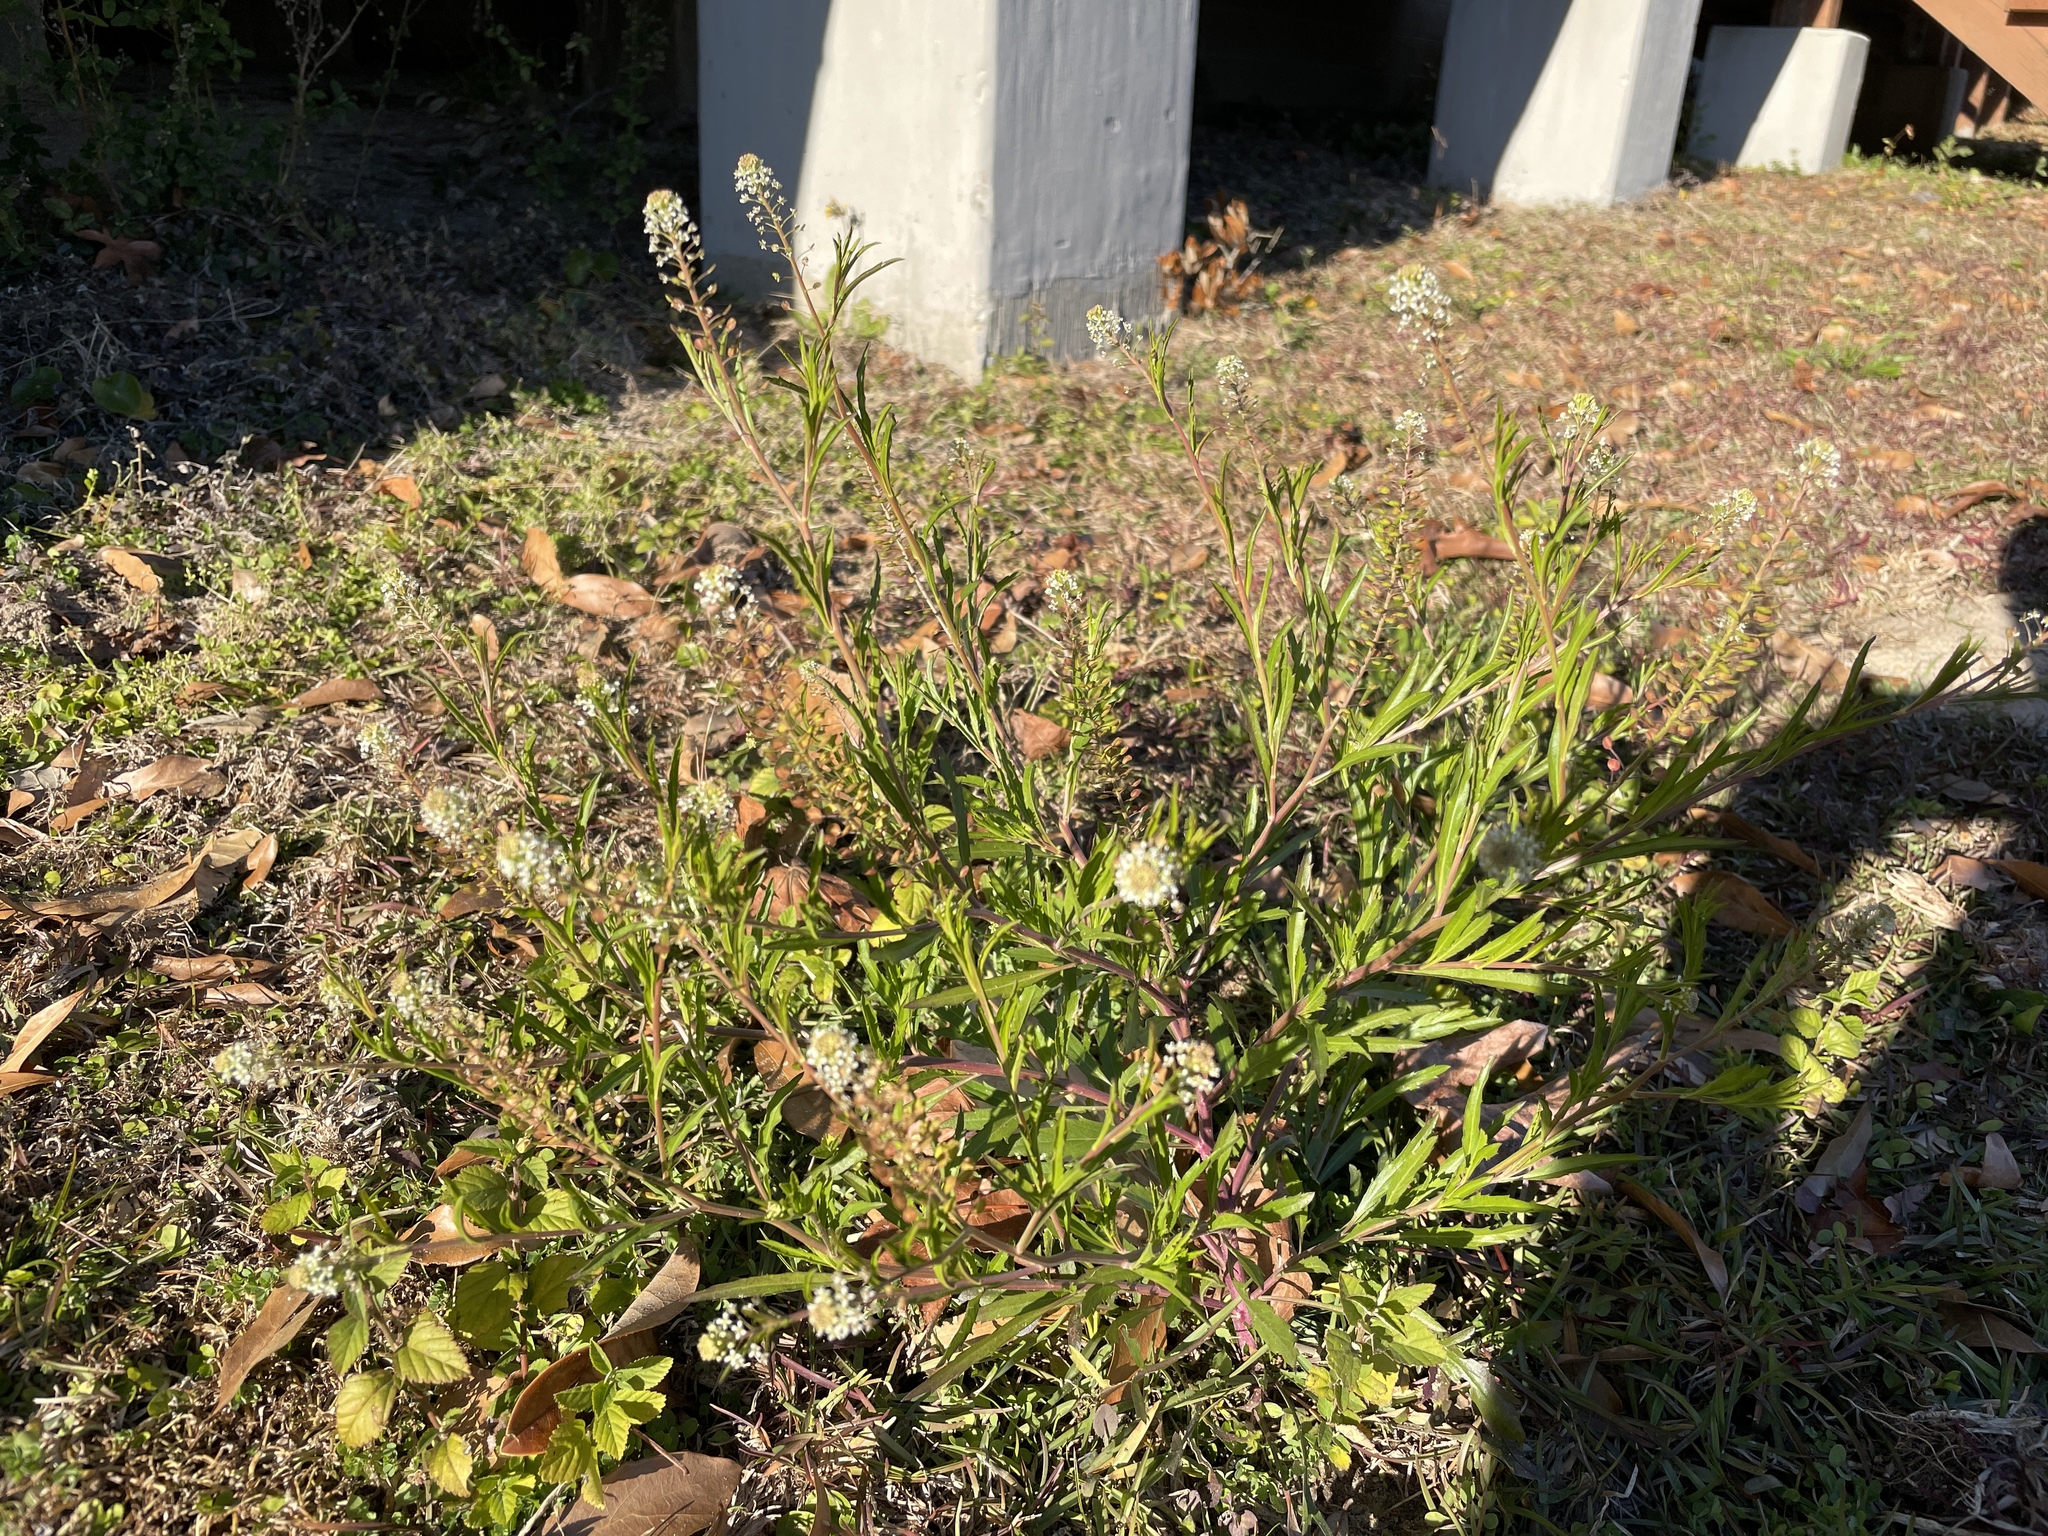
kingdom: Plantae
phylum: Tracheophyta
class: Magnoliopsida
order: Brassicales
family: Brassicaceae
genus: Lepidium
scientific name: Lepidium virginicum
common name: Least pepperwort
